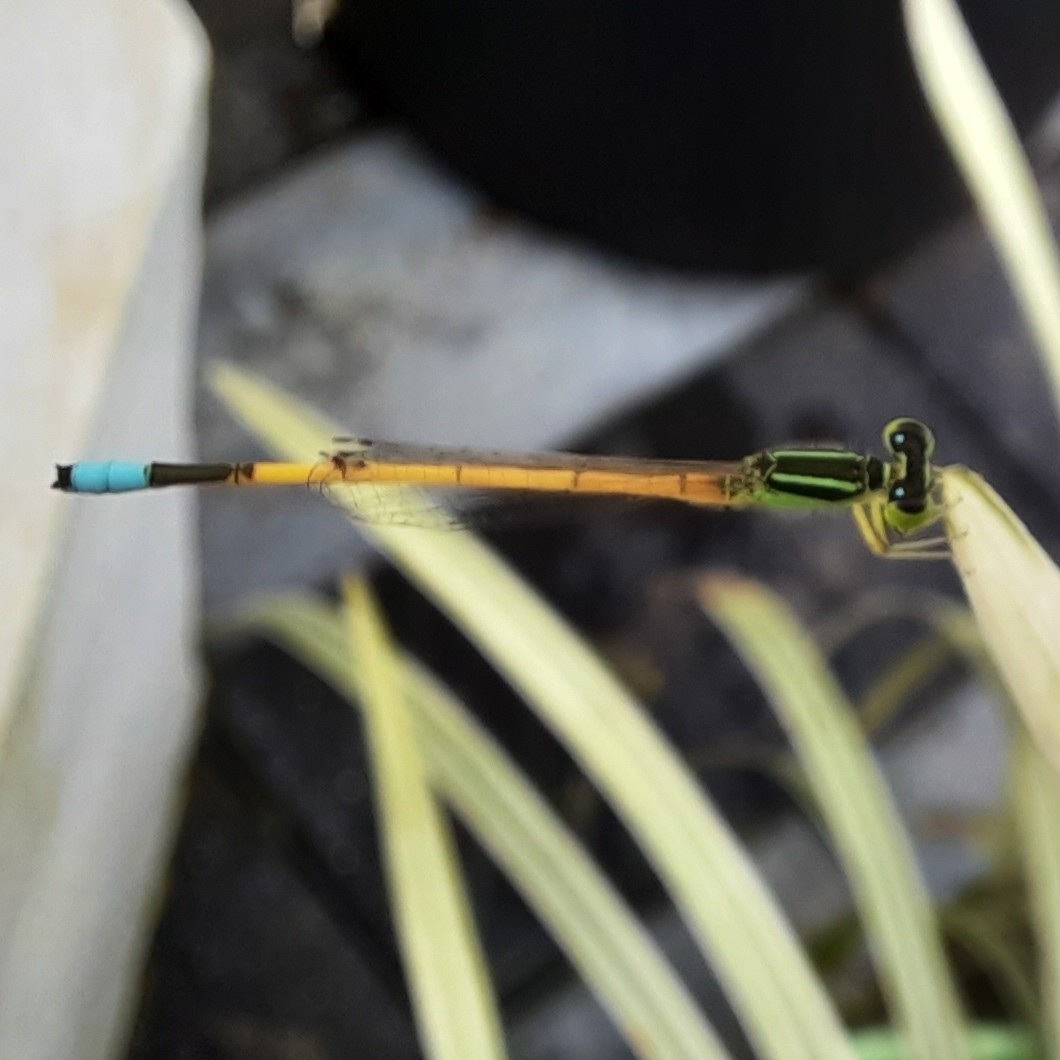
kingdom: Animalia
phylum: Arthropoda
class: Insecta
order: Odonata
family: Coenagrionidae
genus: Ischnura
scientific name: Ischnura rubilio
